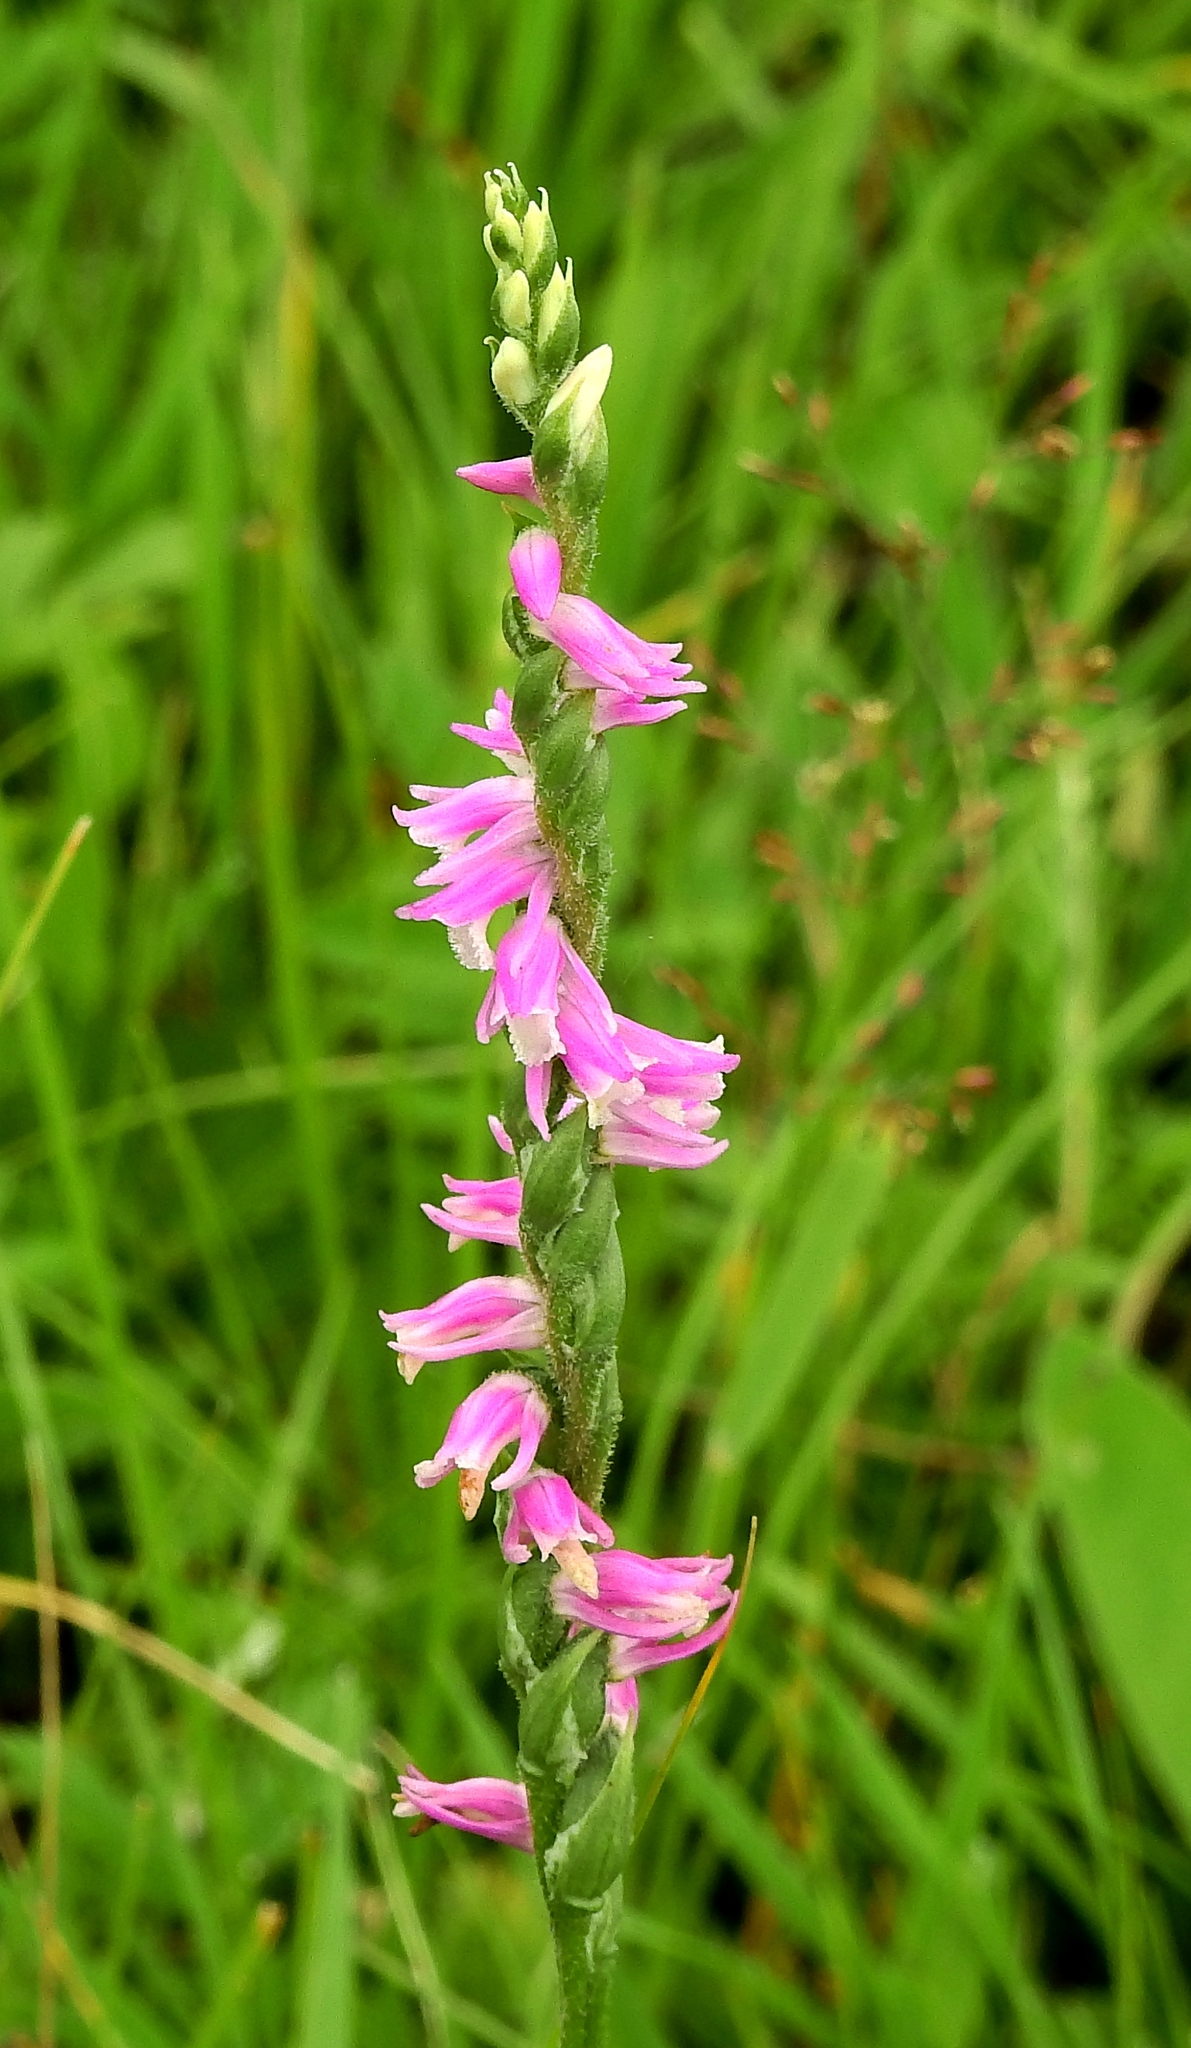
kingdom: Plantae
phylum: Tracheophyta
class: Liliopsida
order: Asparagales
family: Orchidaceae
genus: Spiranthes
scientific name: Spiranthes australis
